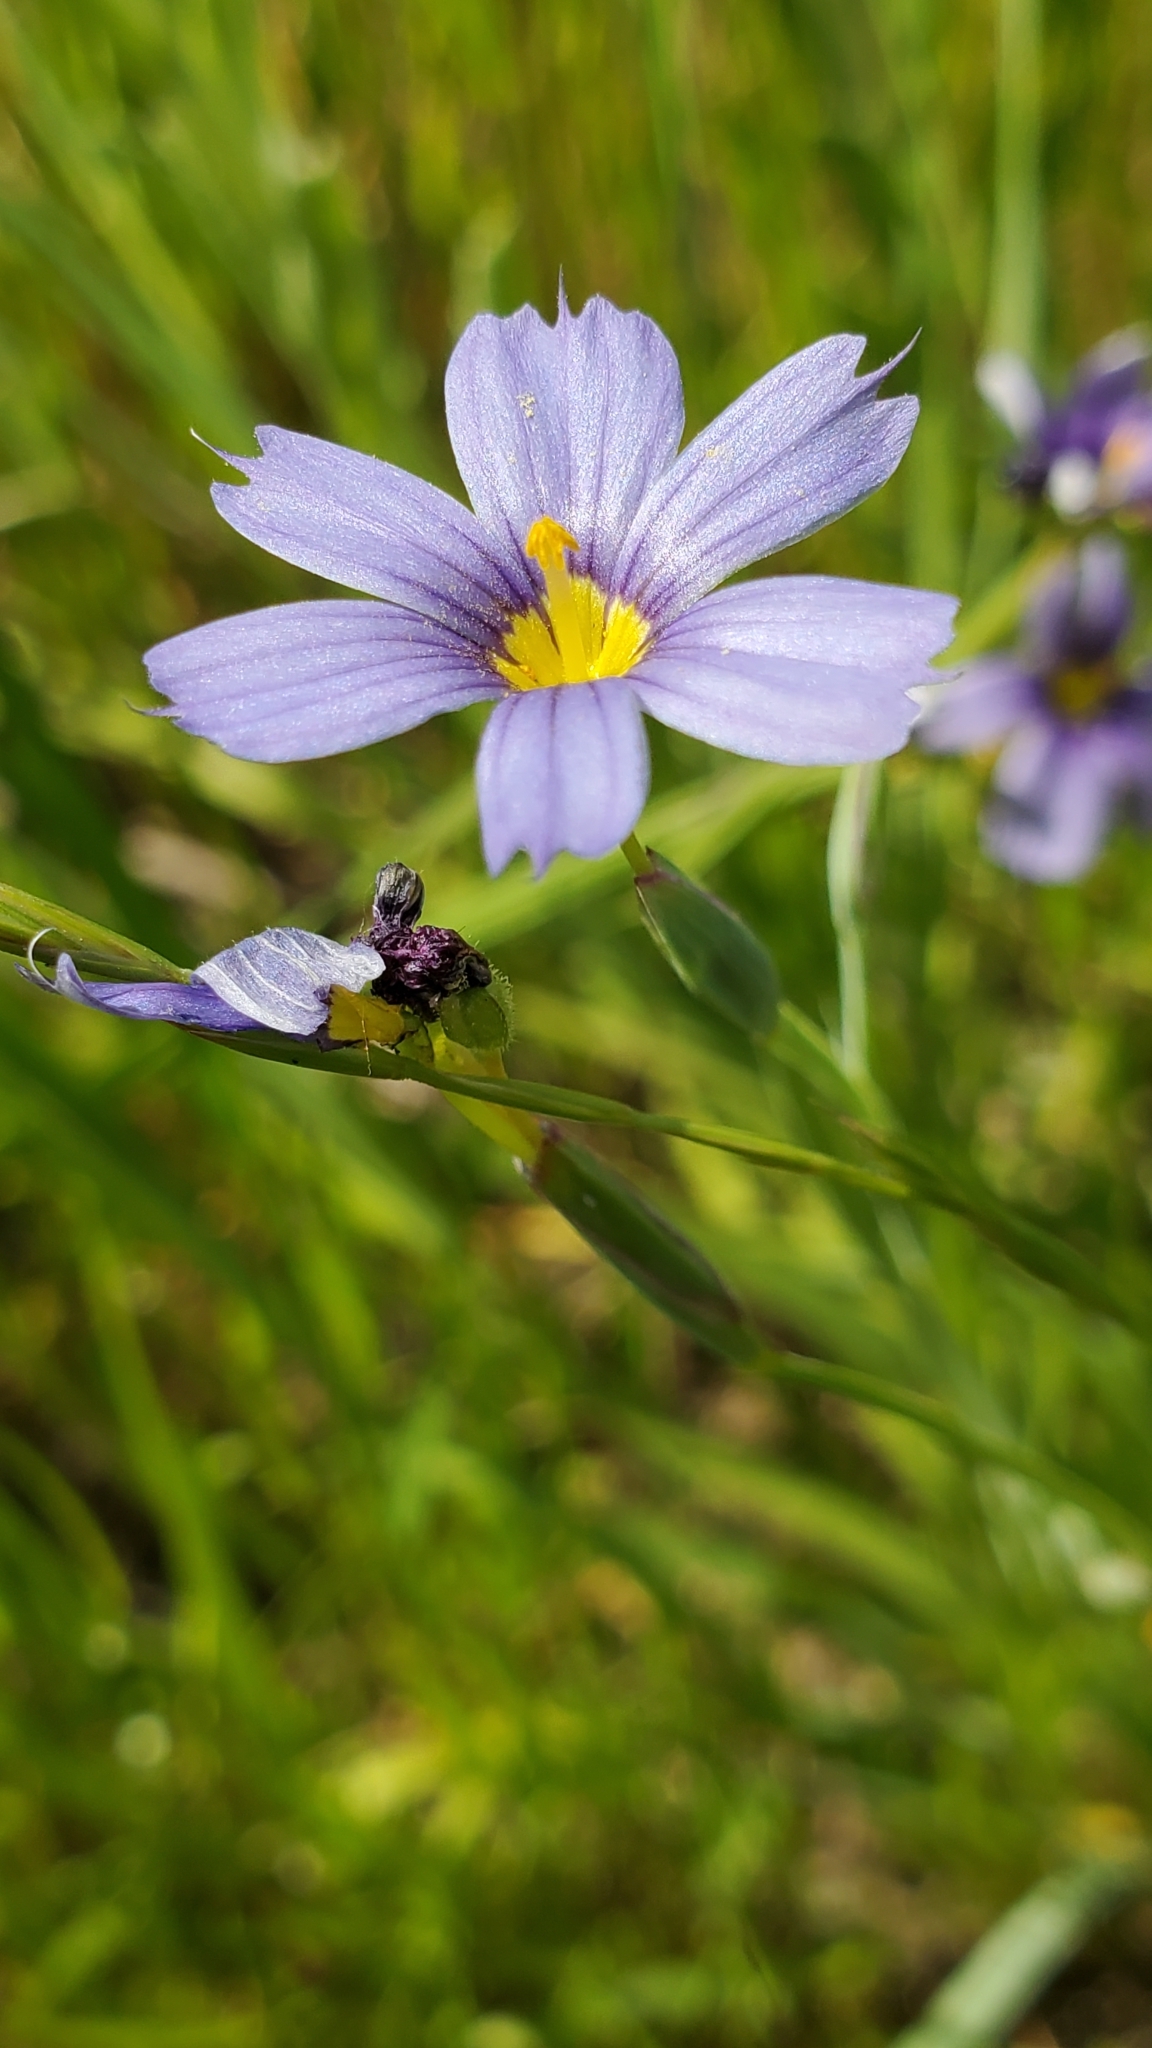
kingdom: Plantae
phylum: Tracheophyta
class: Liliopsida
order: Asparagales
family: Iridaceae
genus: Sisyrinchium
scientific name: Sisyrinchium bellum
